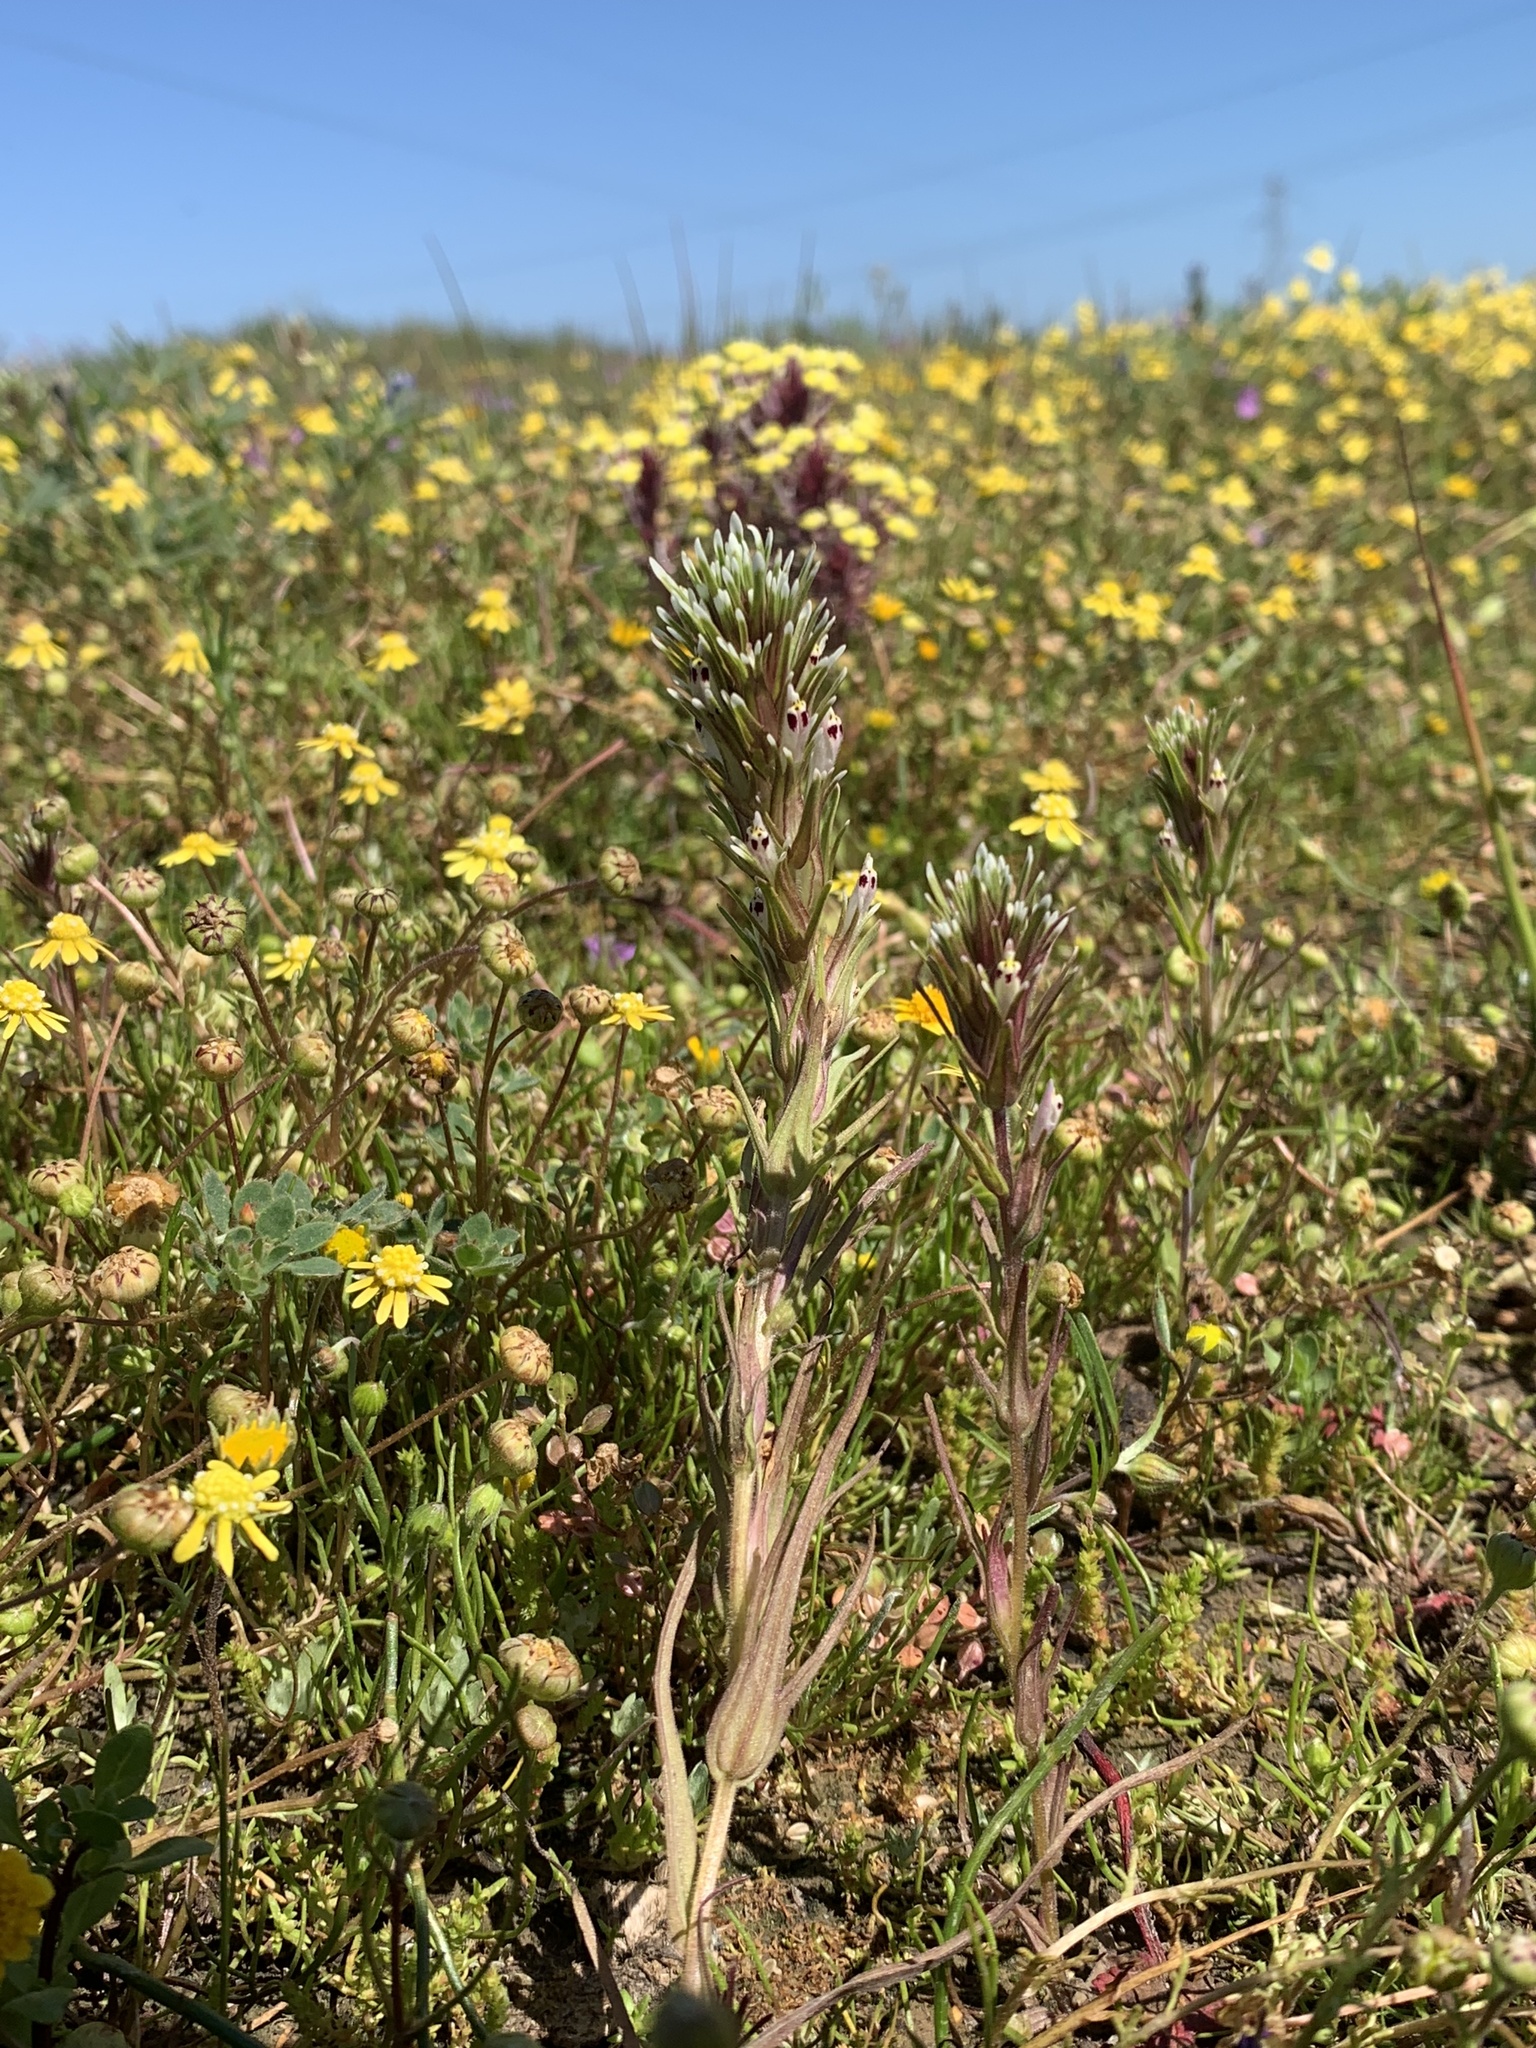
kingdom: Plantae
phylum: Tracheophyta
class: Magnoliopsida
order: Lamiales
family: Orobanchaceae
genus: Castilleja
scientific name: Castilleja attenuata
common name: Valley tassels
